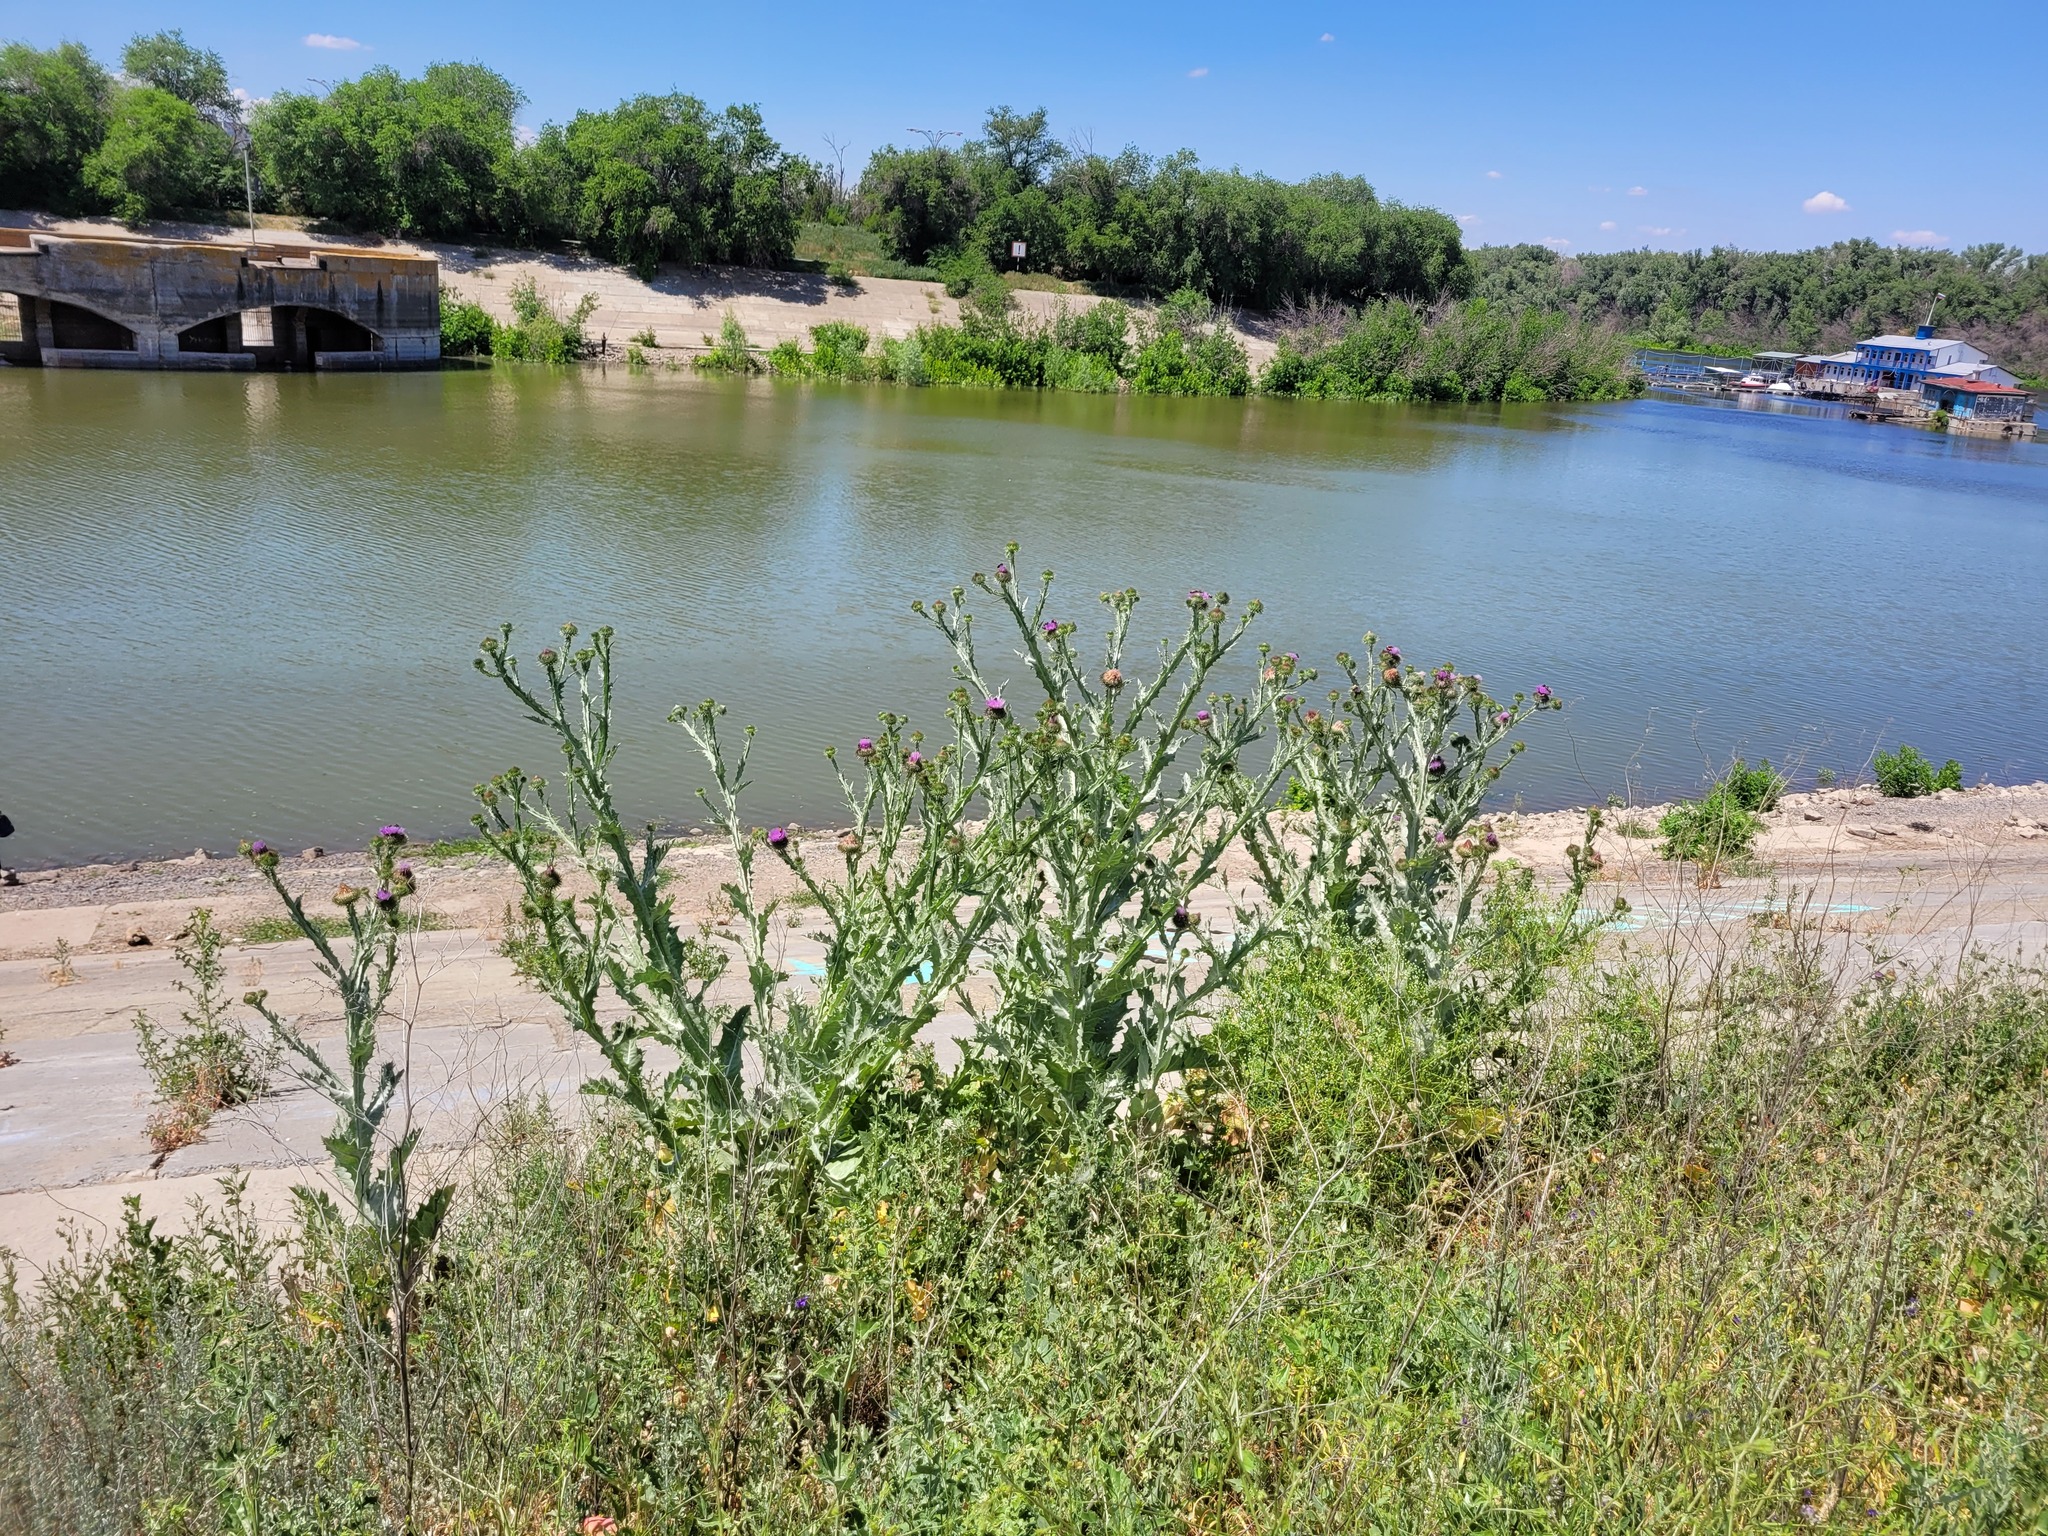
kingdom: Plantae
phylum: Tracheophyta
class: Magnoliopsida
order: Asterales
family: Asteraceae
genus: Onopordum
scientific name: Onopordum acanthium
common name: Scotch thistle
